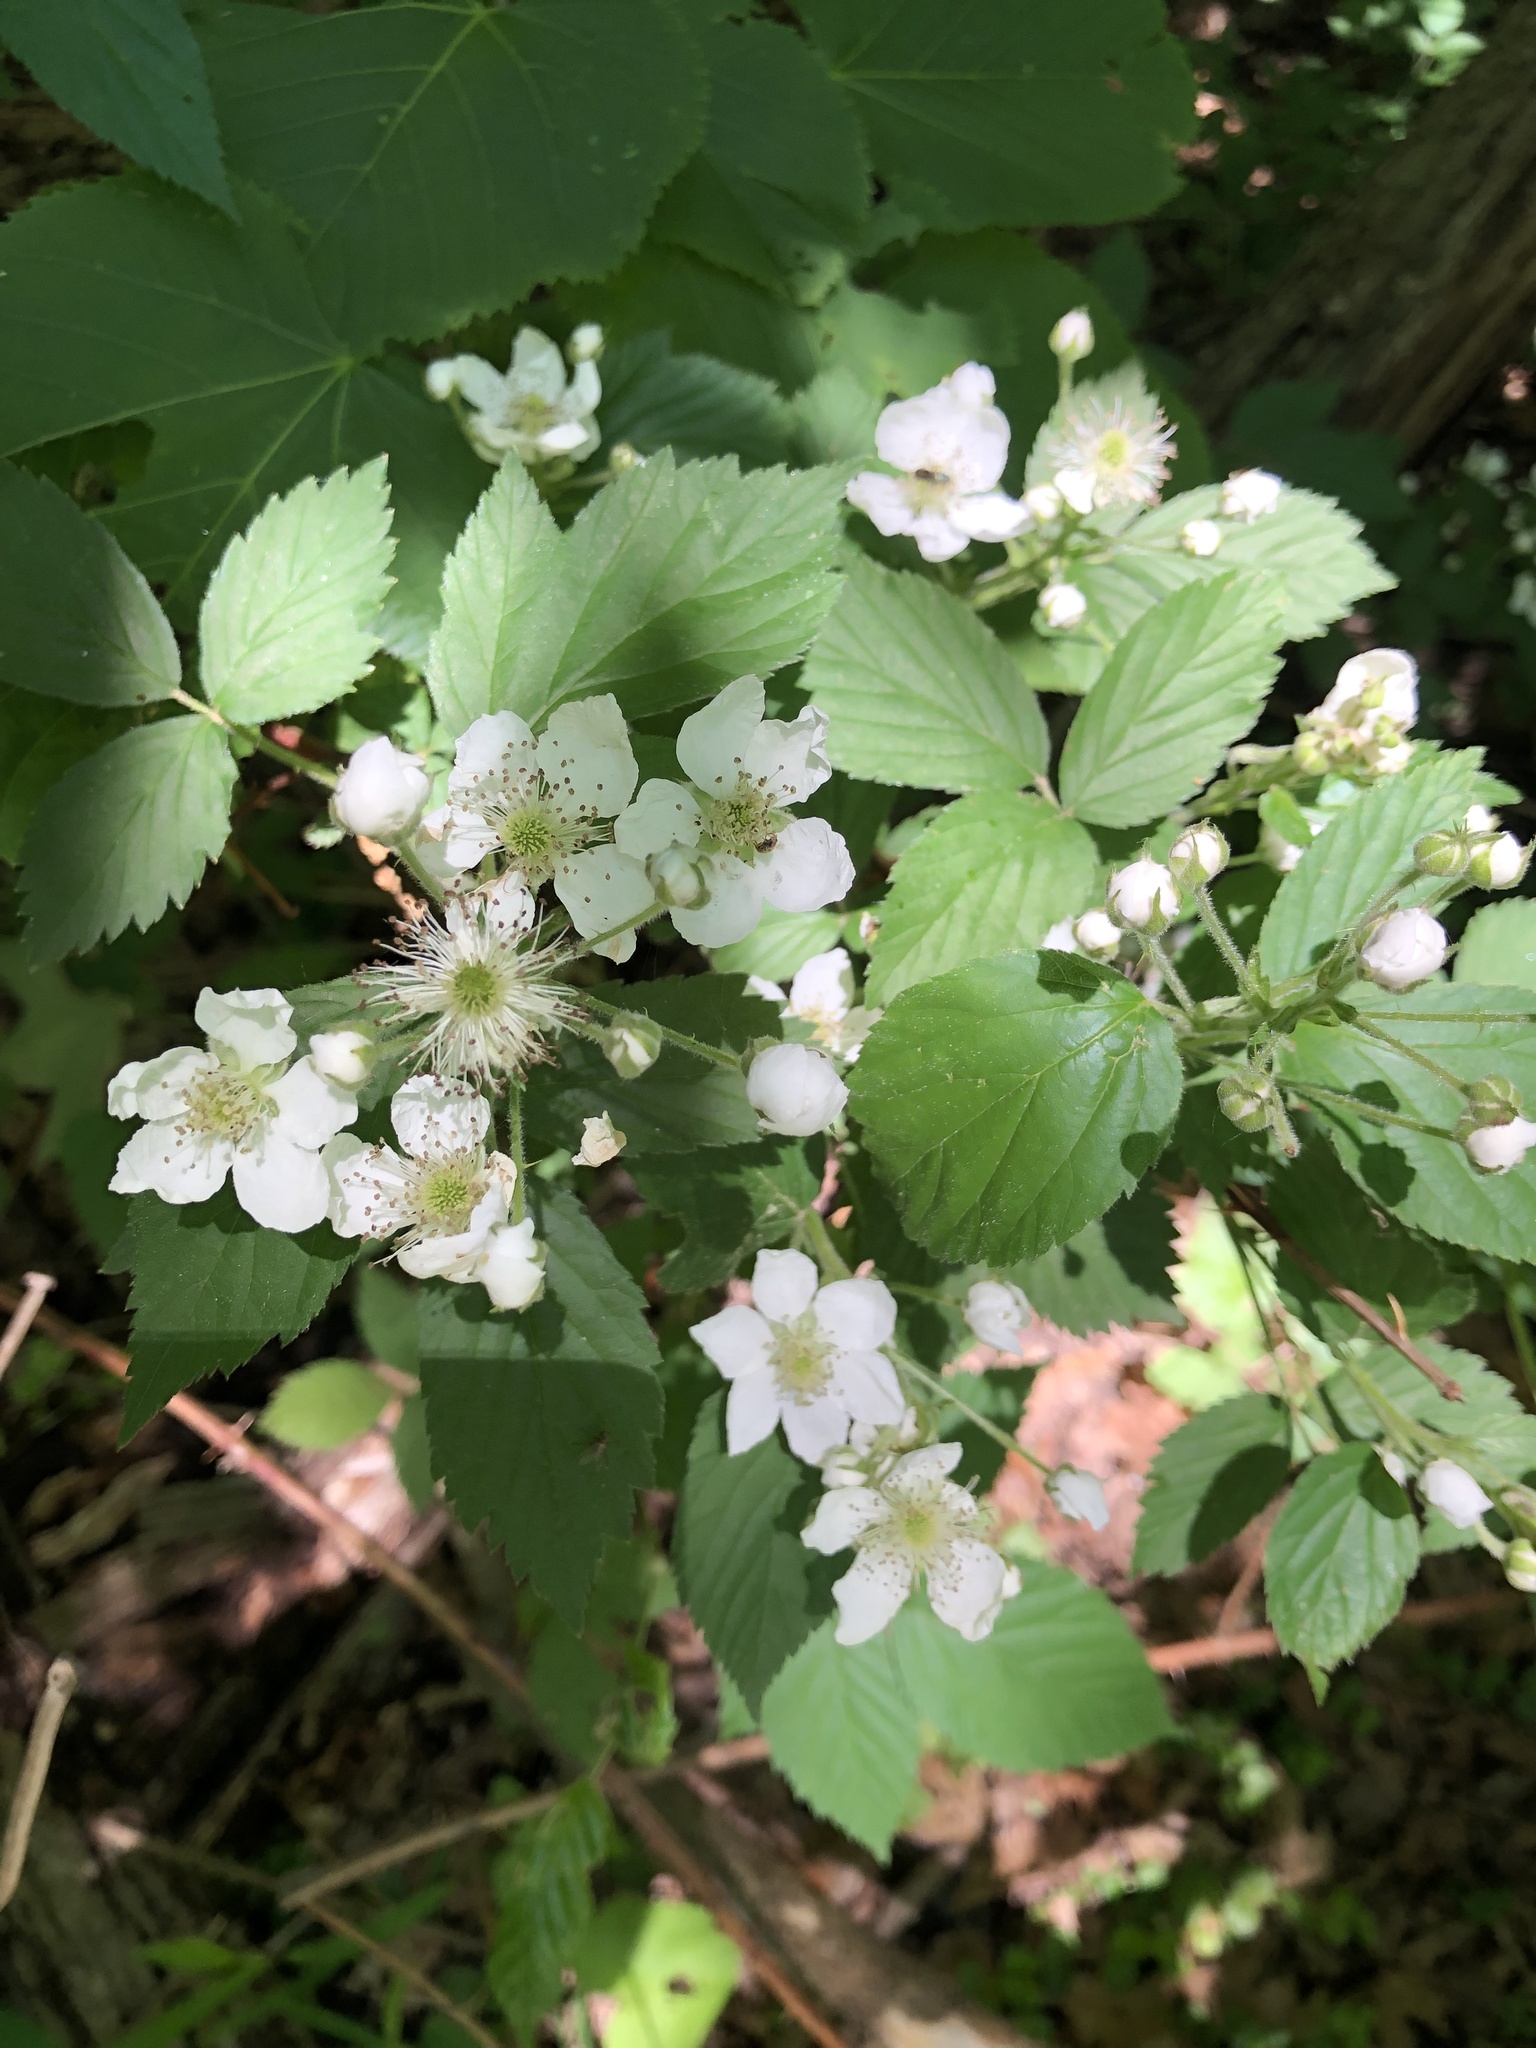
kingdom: Plantae
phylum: Tracheophyta
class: Magnoliopsida
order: Rosales
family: Rosaceae
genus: Rubus
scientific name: Rubus allegheniensis
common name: Allegheny blackberry
